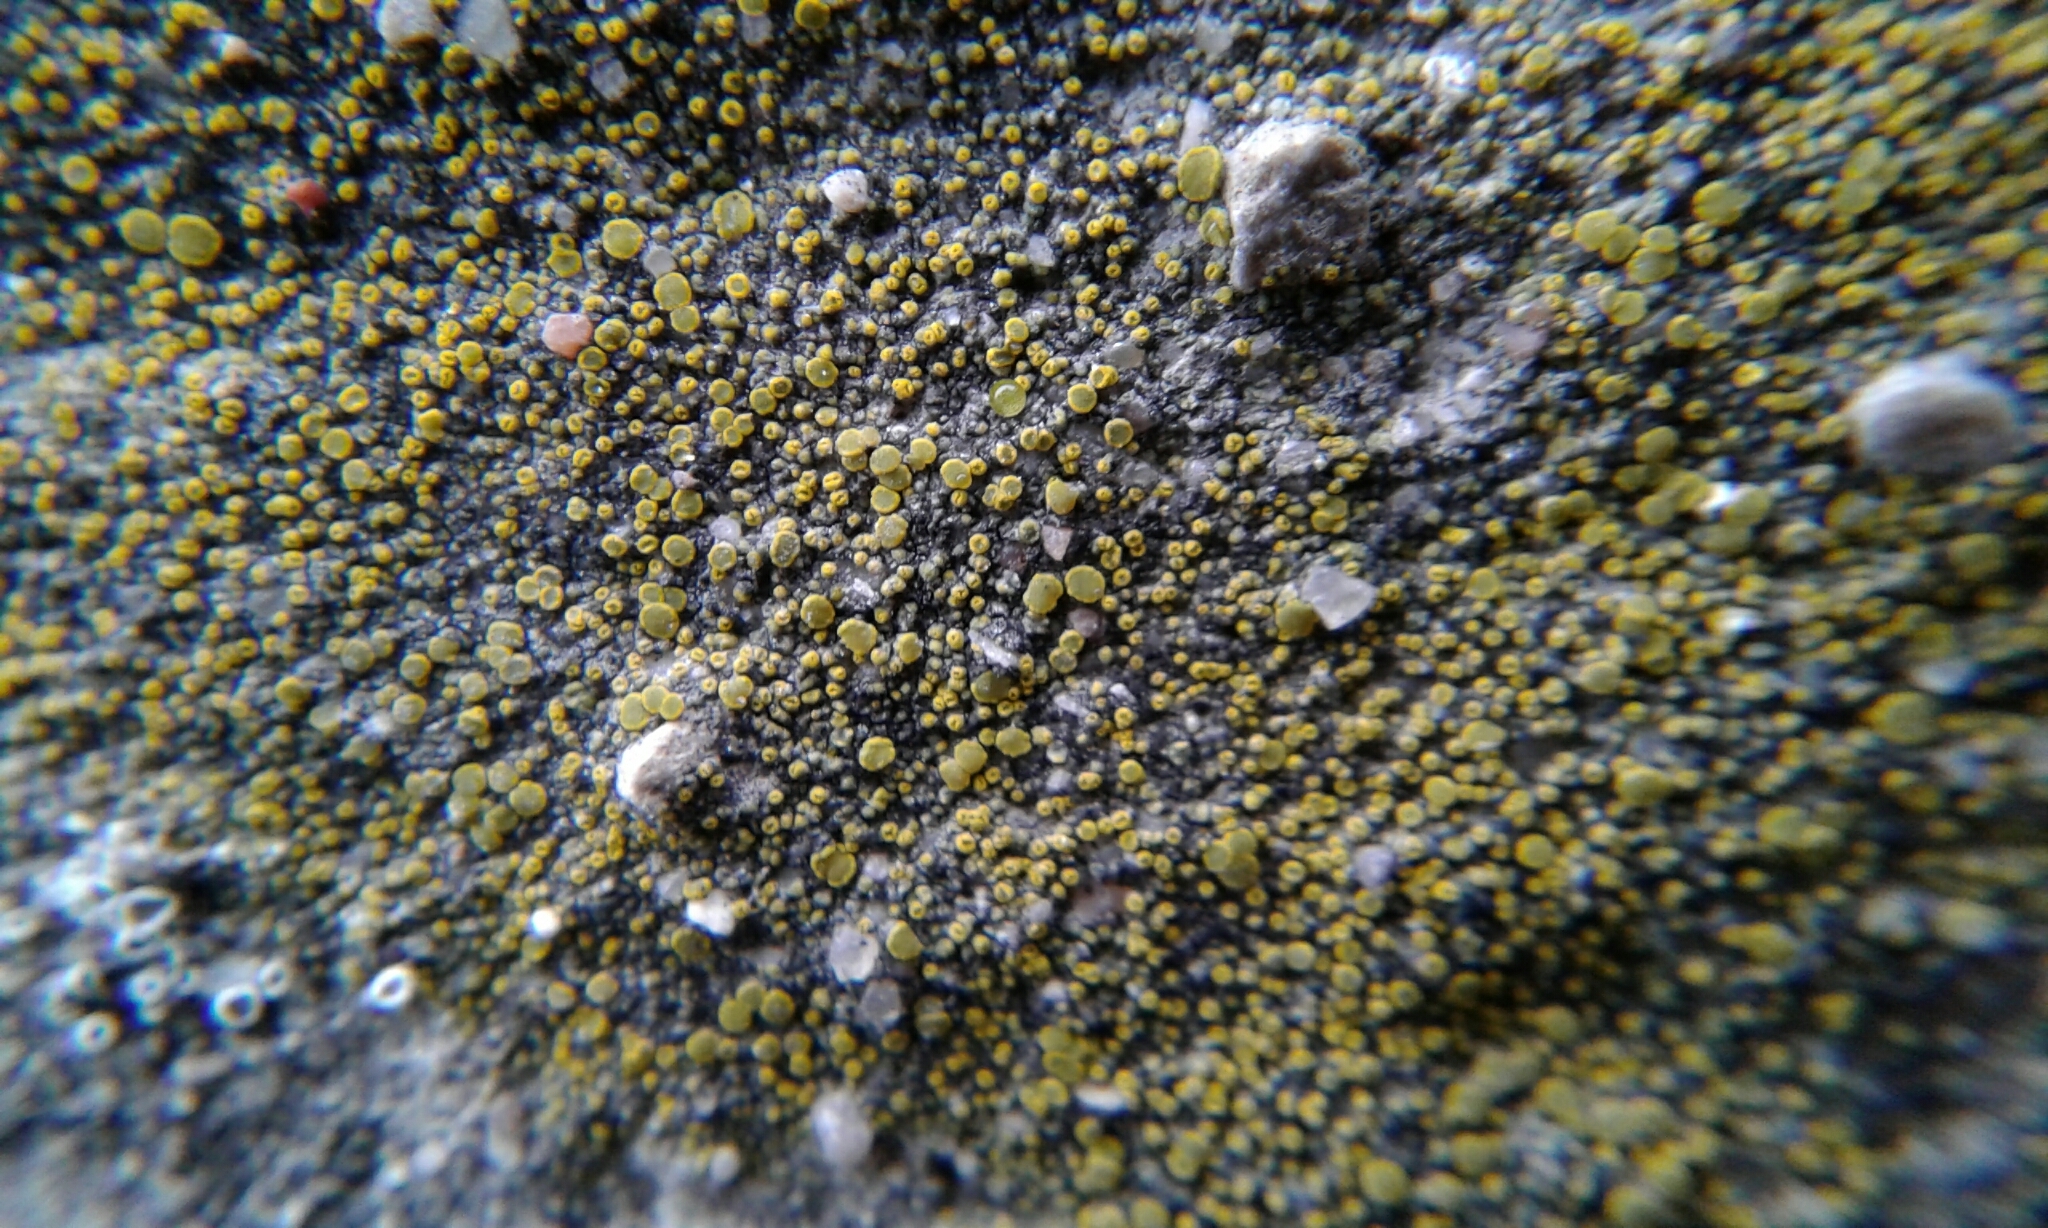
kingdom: Fungi
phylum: Ascomycota
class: Candelariomycetes
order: Candelariales
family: Candelariaceae
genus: Candelariella
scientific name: Candelariella aurella
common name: Hidden goldspeck lichen
